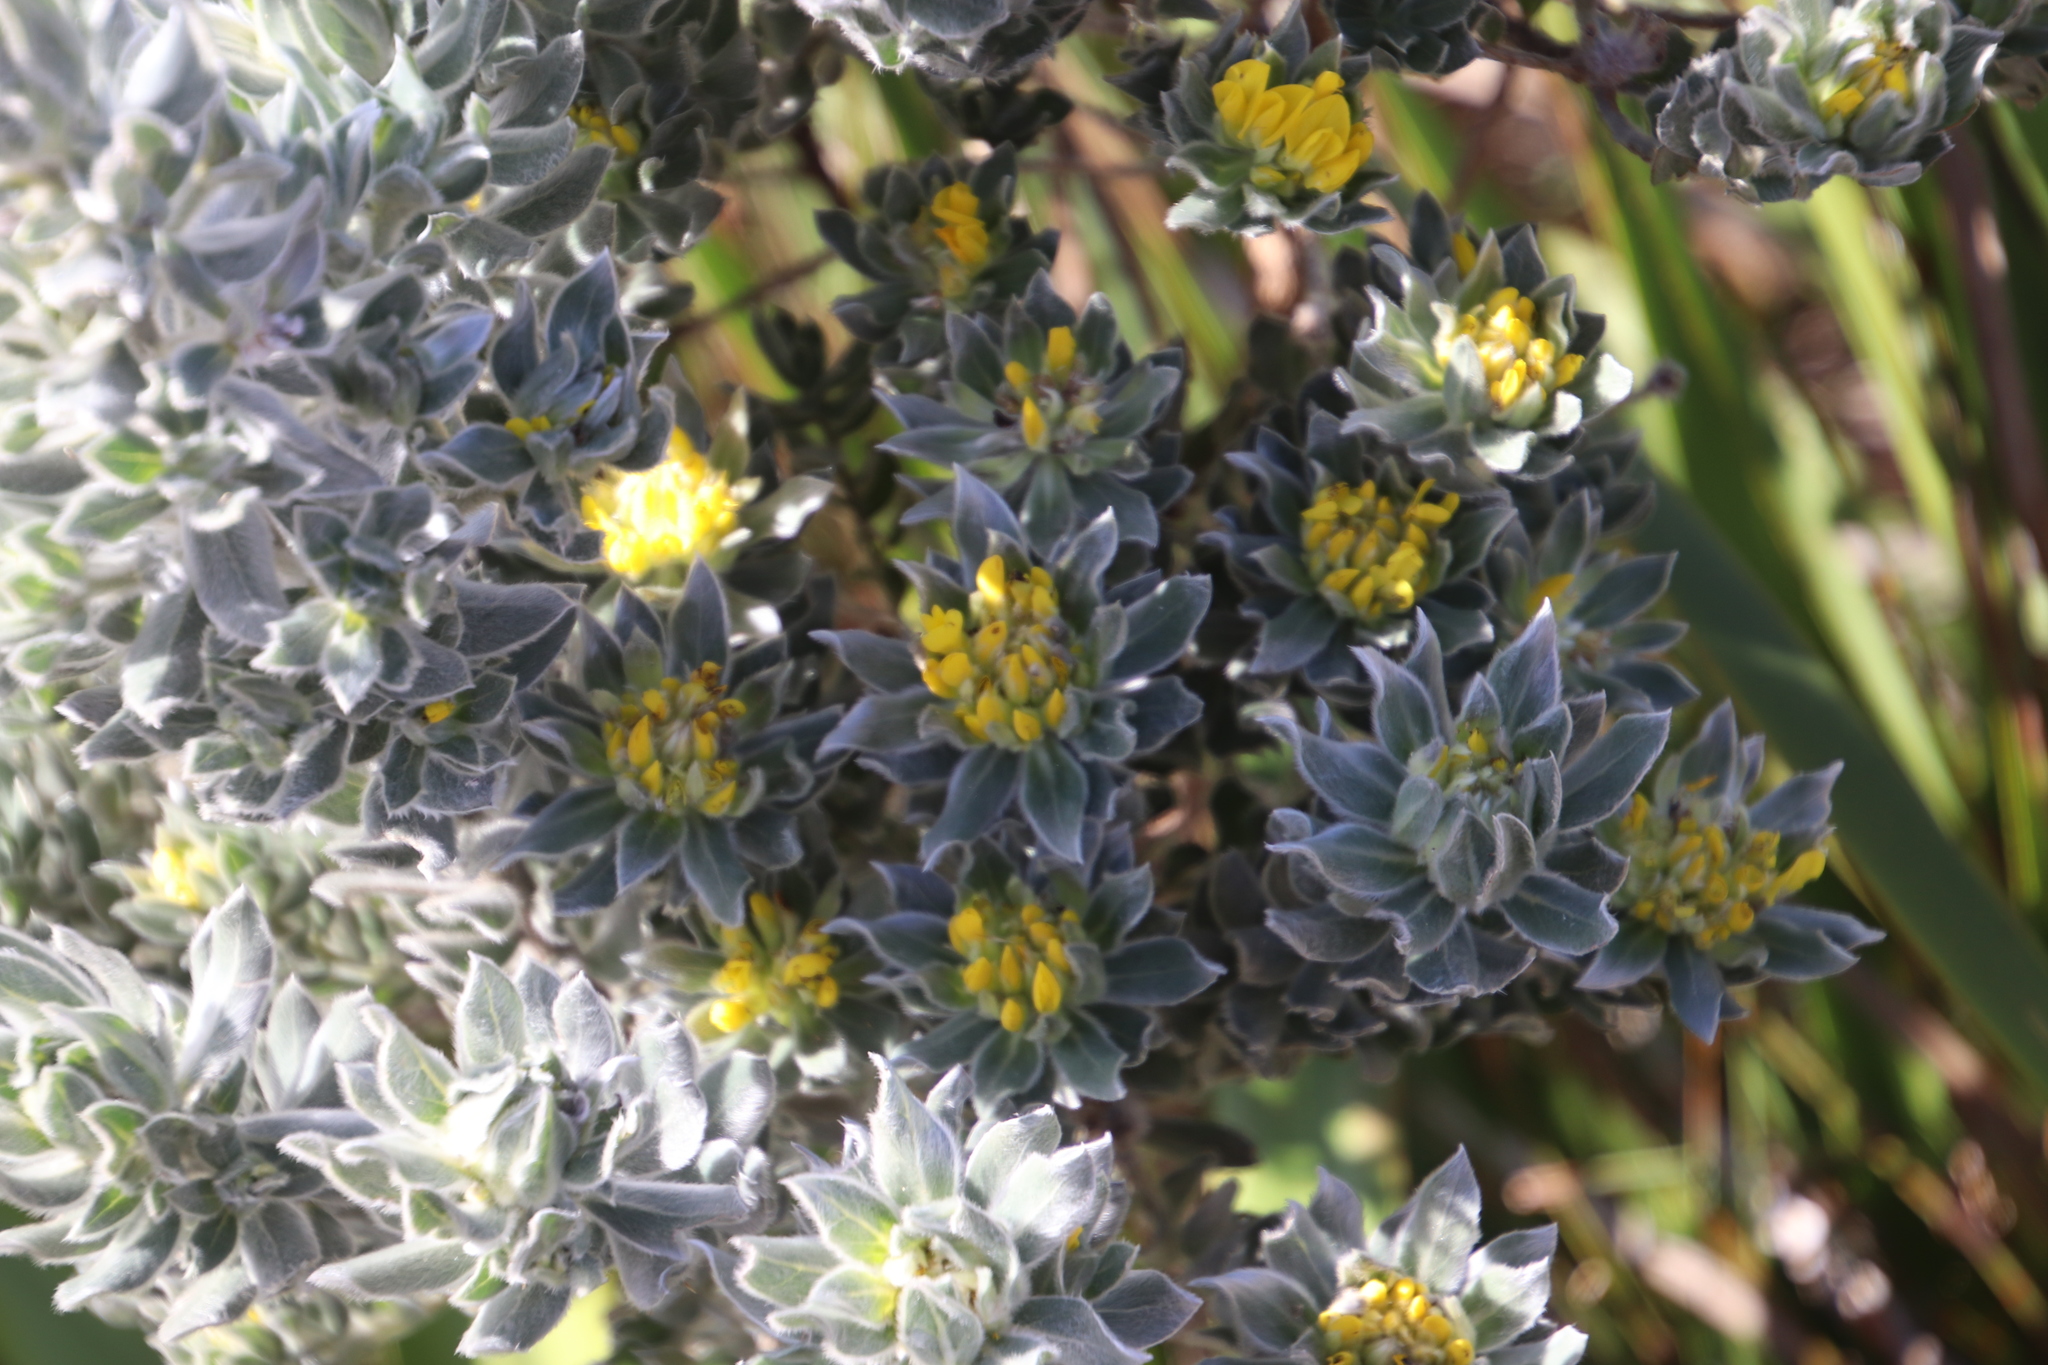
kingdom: Plantae
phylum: Tracheophyta
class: Magnoliopsida
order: Fabales
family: Fabaceae
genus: Xiphotheca
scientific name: Xiphotheca fruticosa
